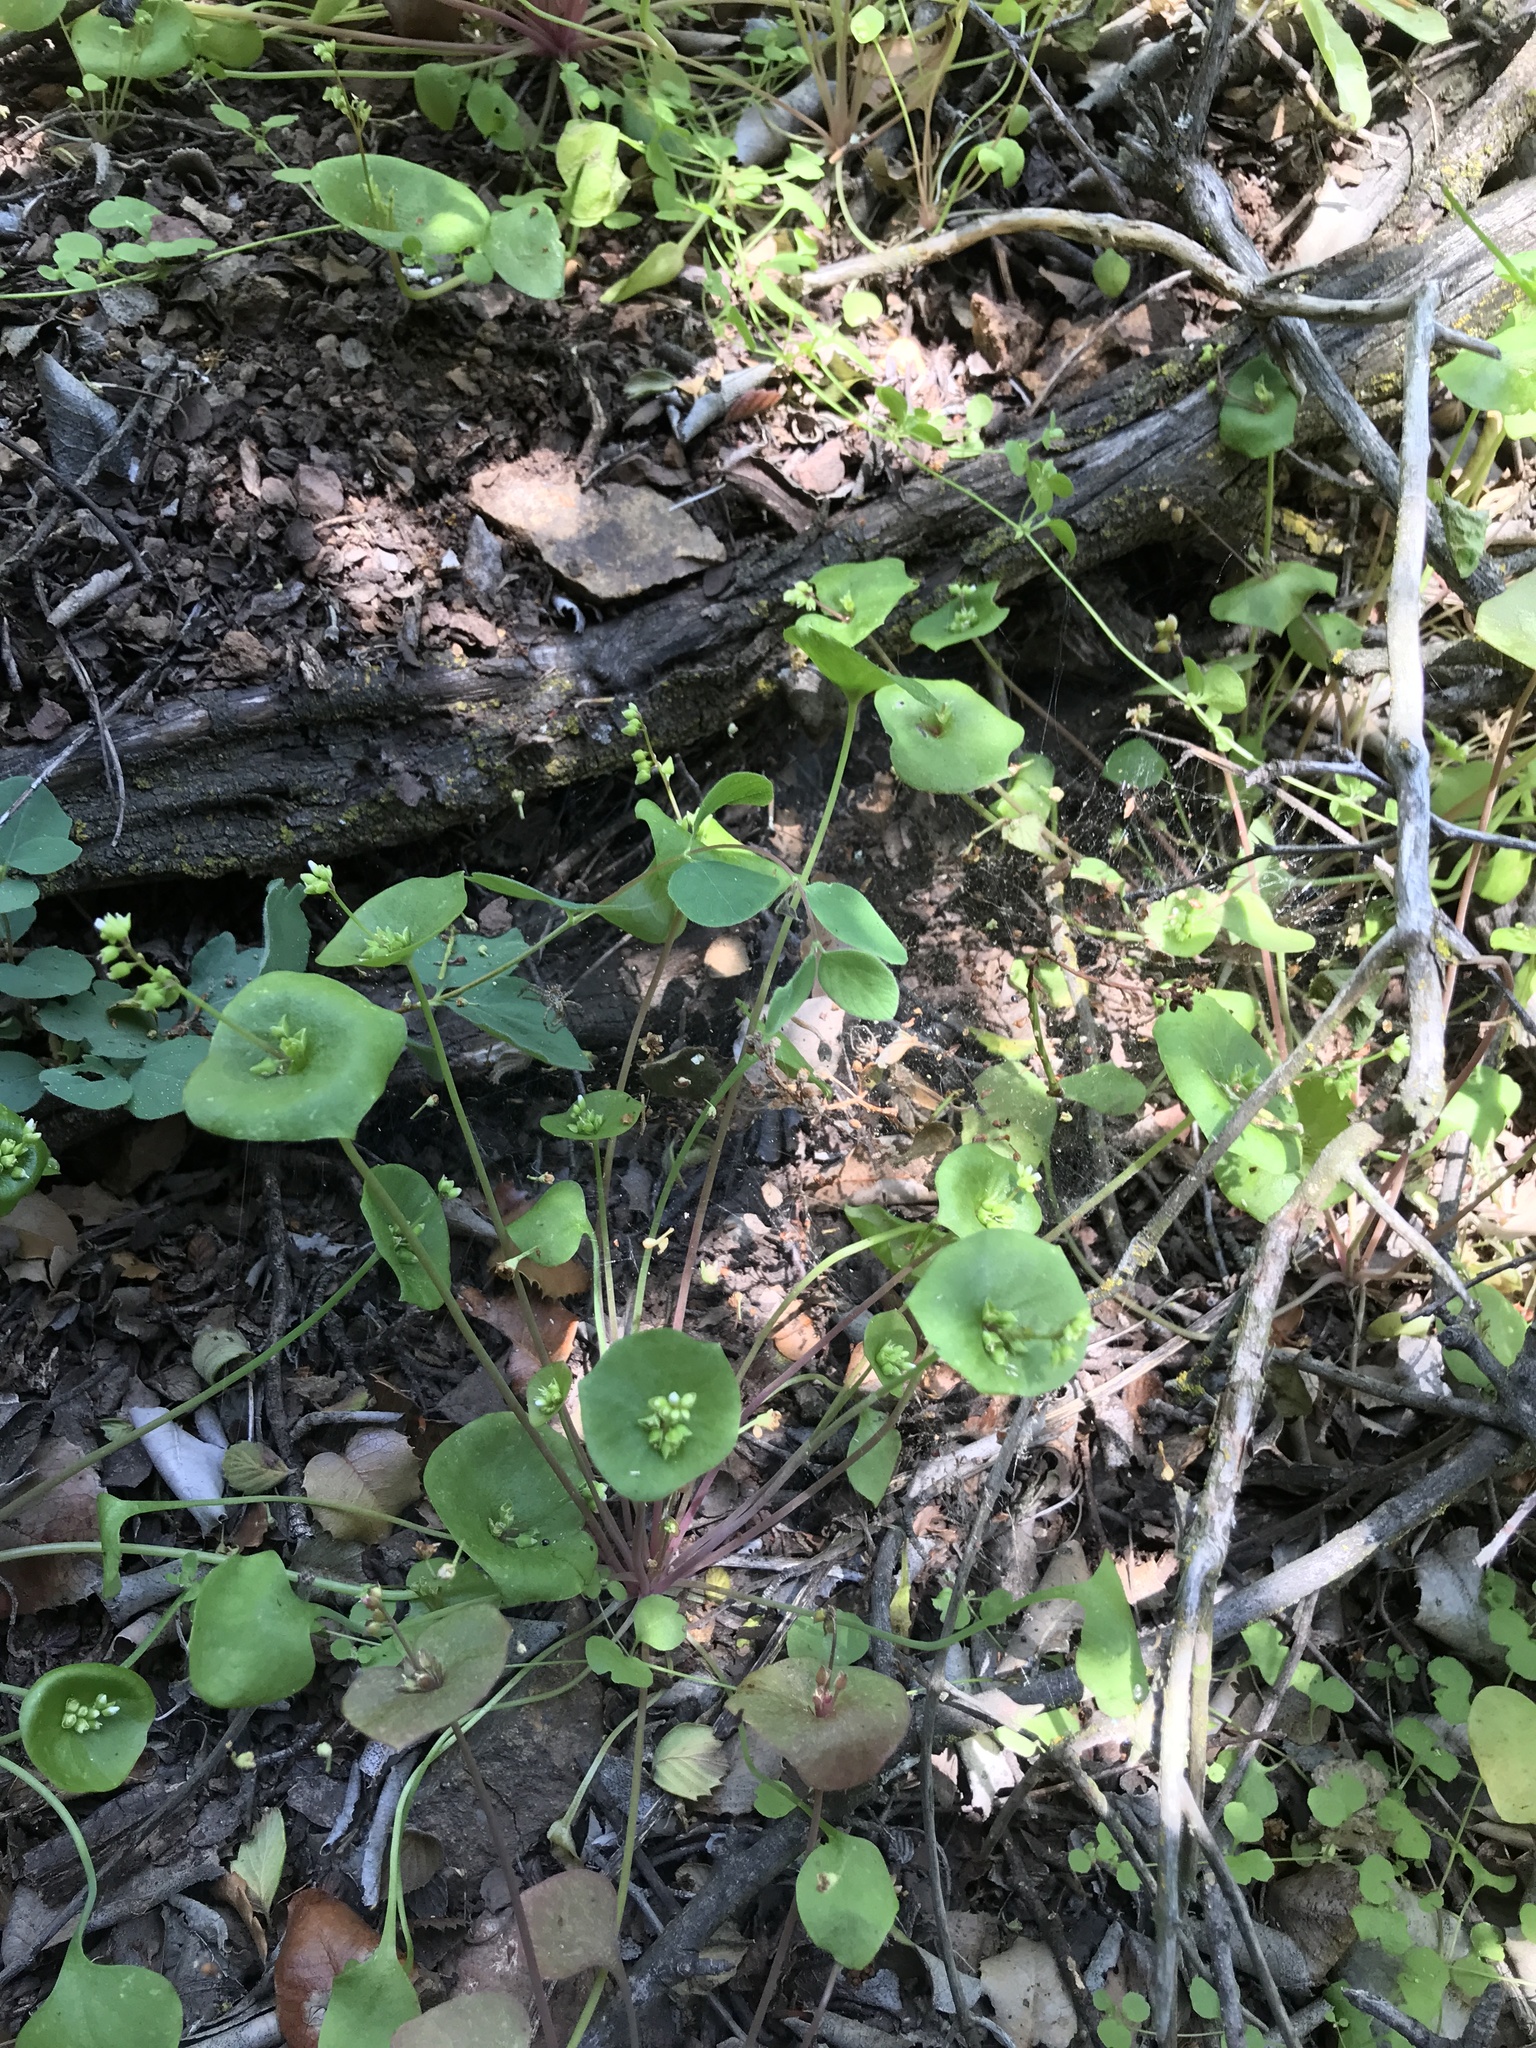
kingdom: Plantae
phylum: Tracheophyta
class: Magnoliopsida
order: Caryophyllales
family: Montiaceae
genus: Claytonia
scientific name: Claytonia perfoliata
